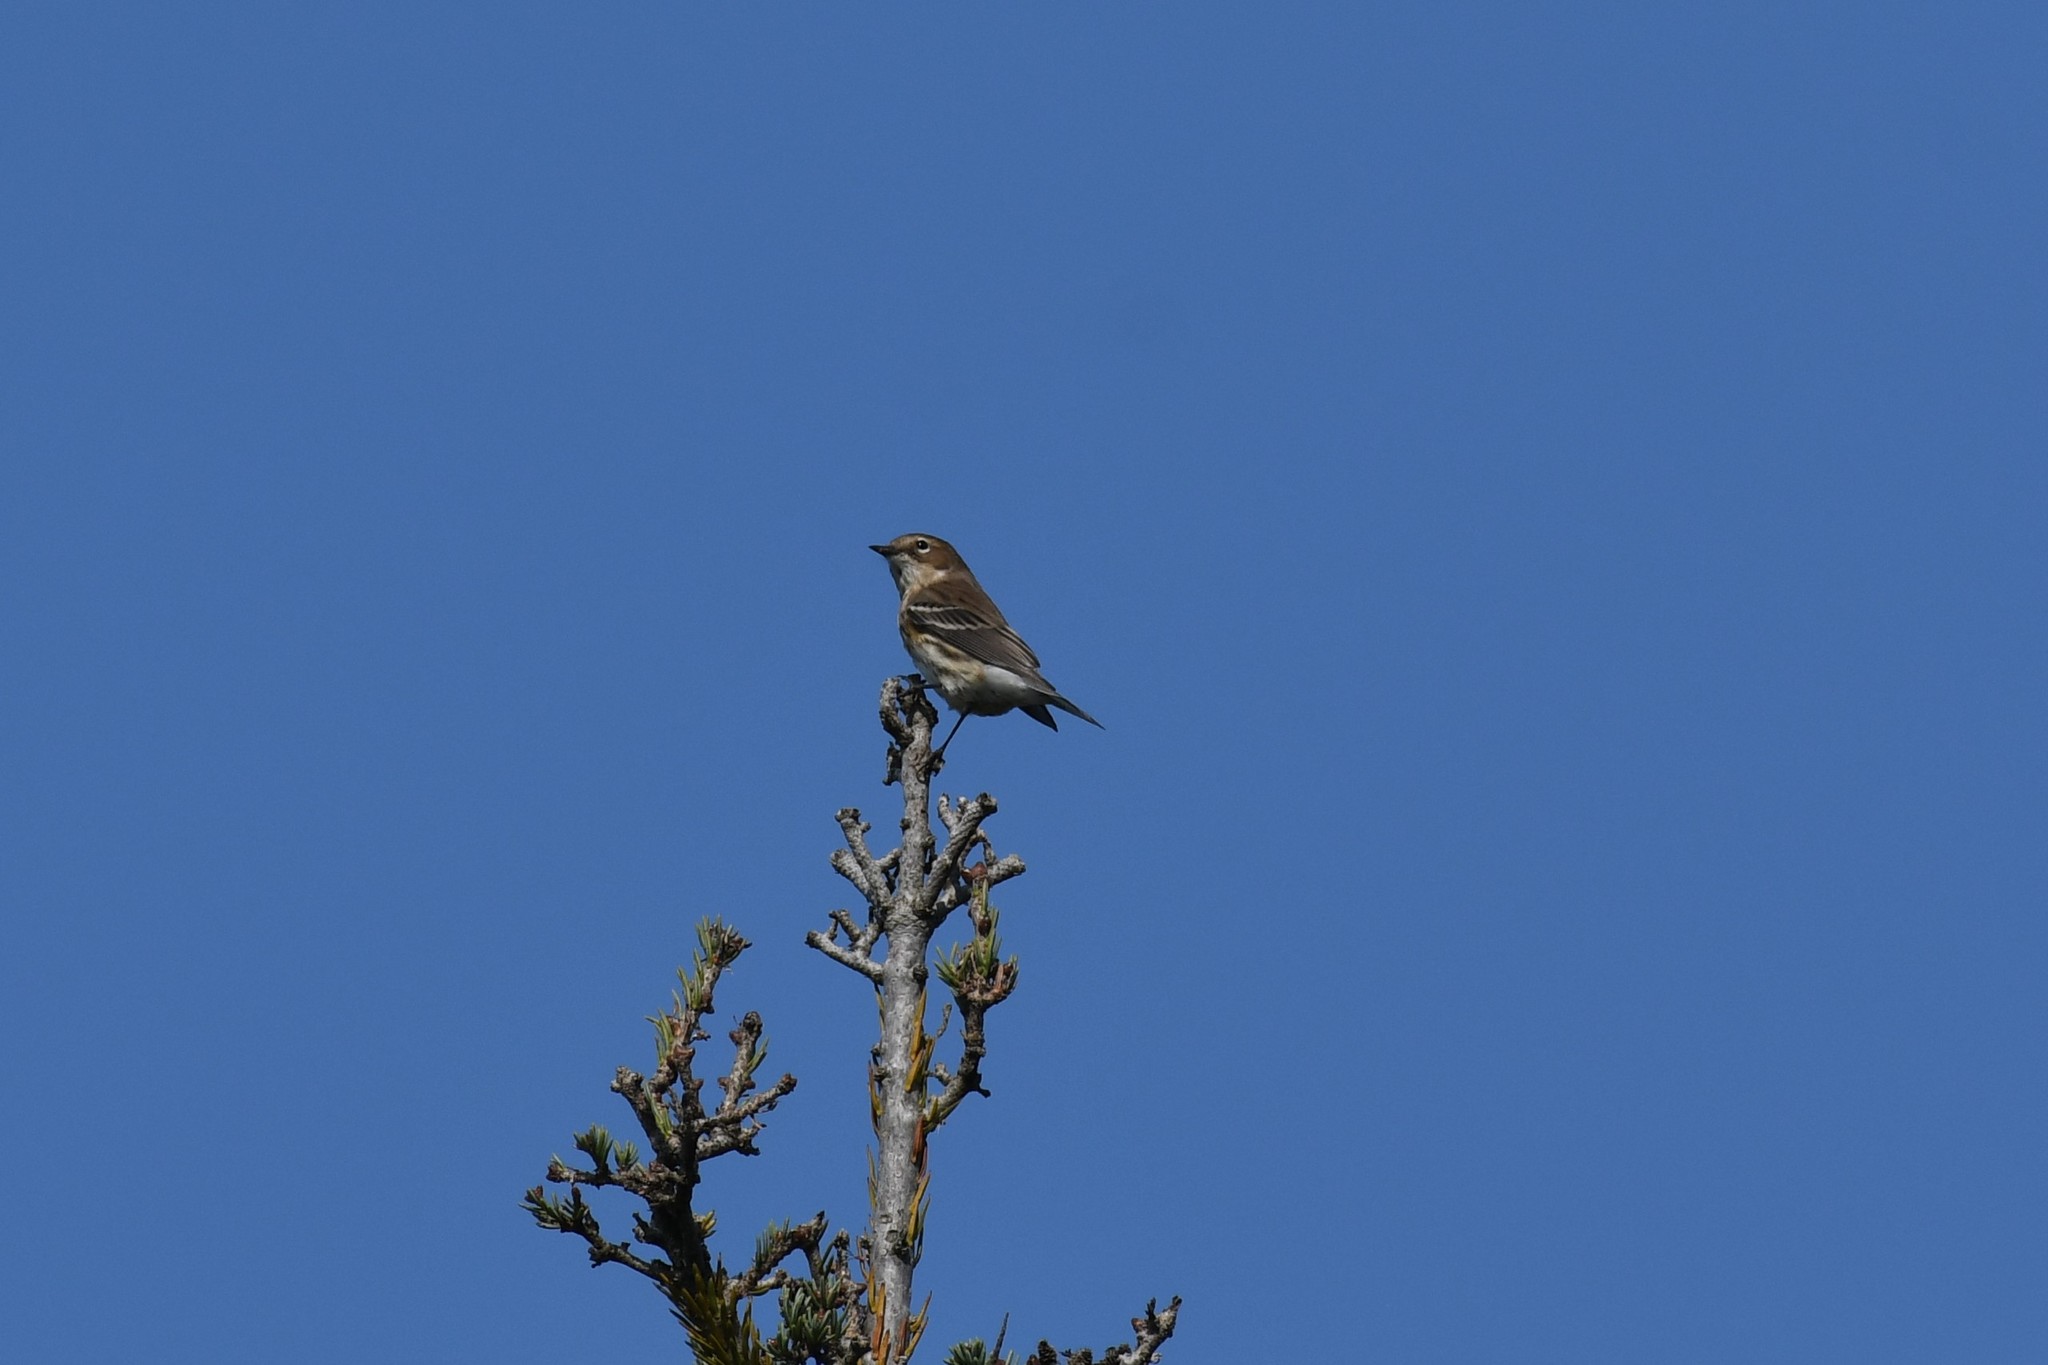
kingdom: Animalia
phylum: Chordata
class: Aves
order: Passeriformes
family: Parulidae
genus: Setophaga
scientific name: Setophaga coronata
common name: Myrtle warbler
